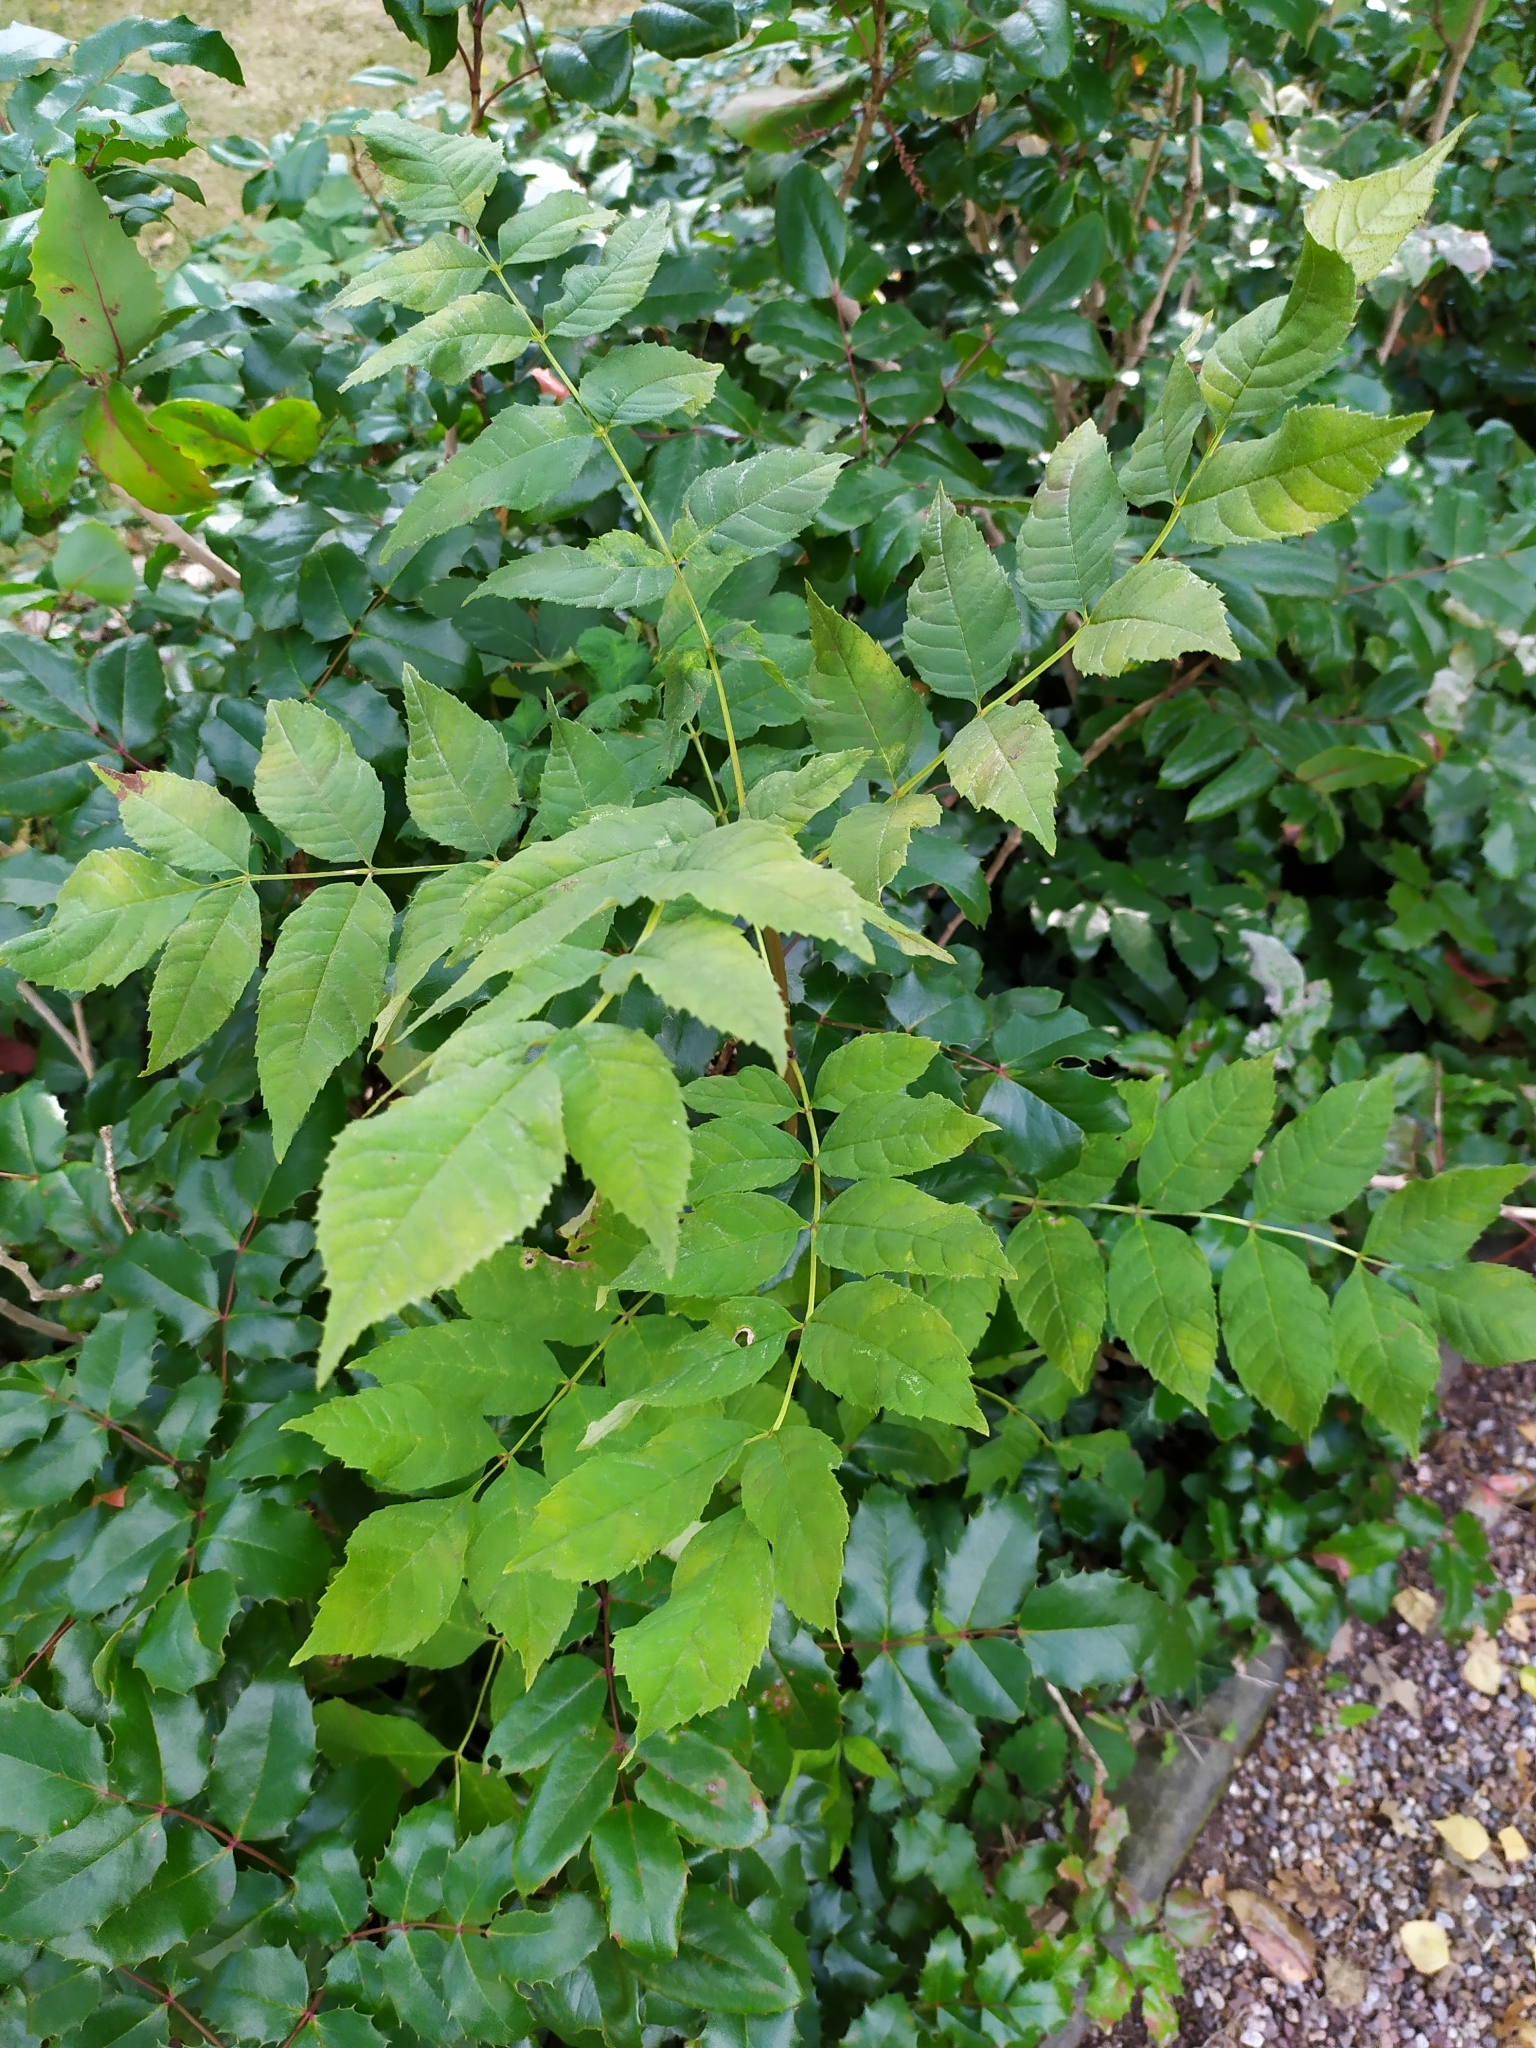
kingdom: Plantae
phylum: Tracheophyta
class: Magnoliopsida
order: Lamiales
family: Oleaceae
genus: Fraxinus
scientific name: Fraxinus excelsior
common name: European ash
